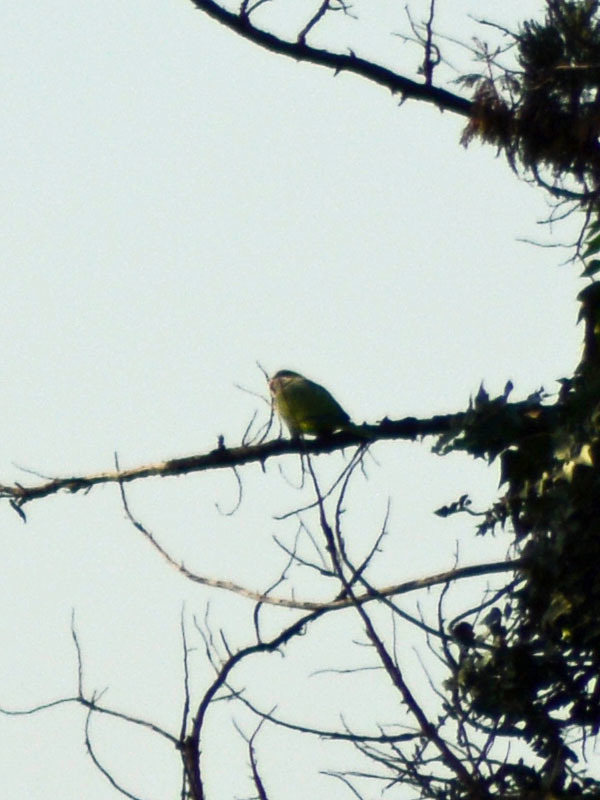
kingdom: Animalia
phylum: Chordata
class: Aves
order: Psittaciformes
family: Psittacidae
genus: Myiopsitta
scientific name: Myiopsitta monachus
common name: Monk parakeet
